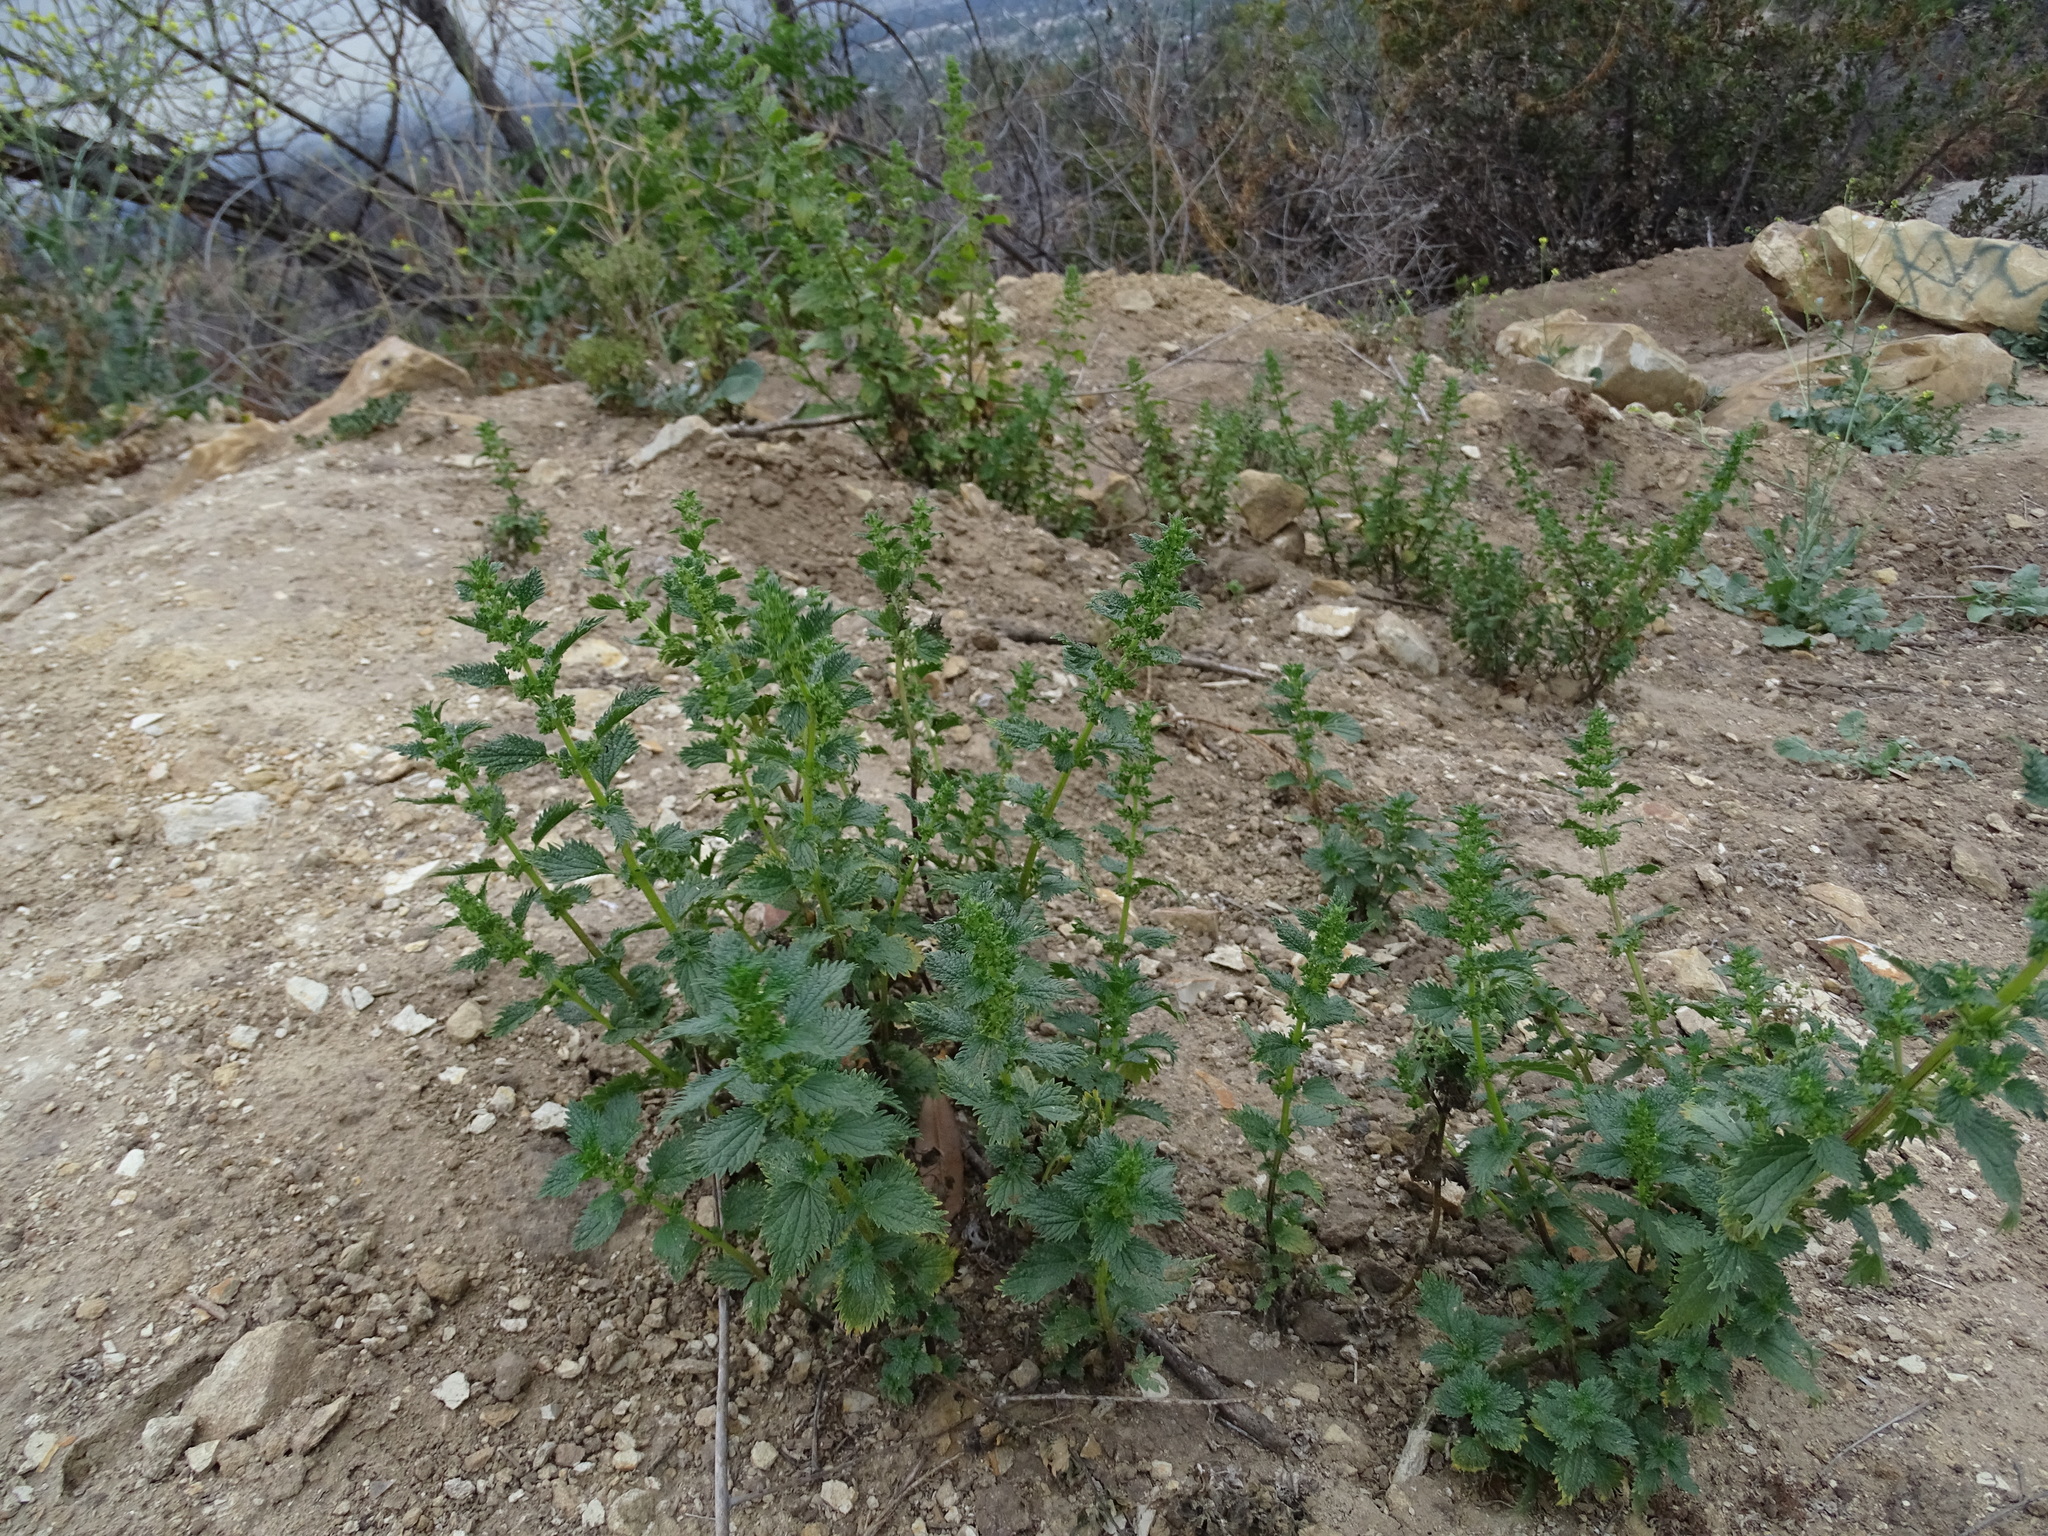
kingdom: Plantae
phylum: Tracheophyta
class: Magnoliopsida
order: Rosales
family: Urticaceae
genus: Urtica
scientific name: Urtica urens
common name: Dwarf nettle
